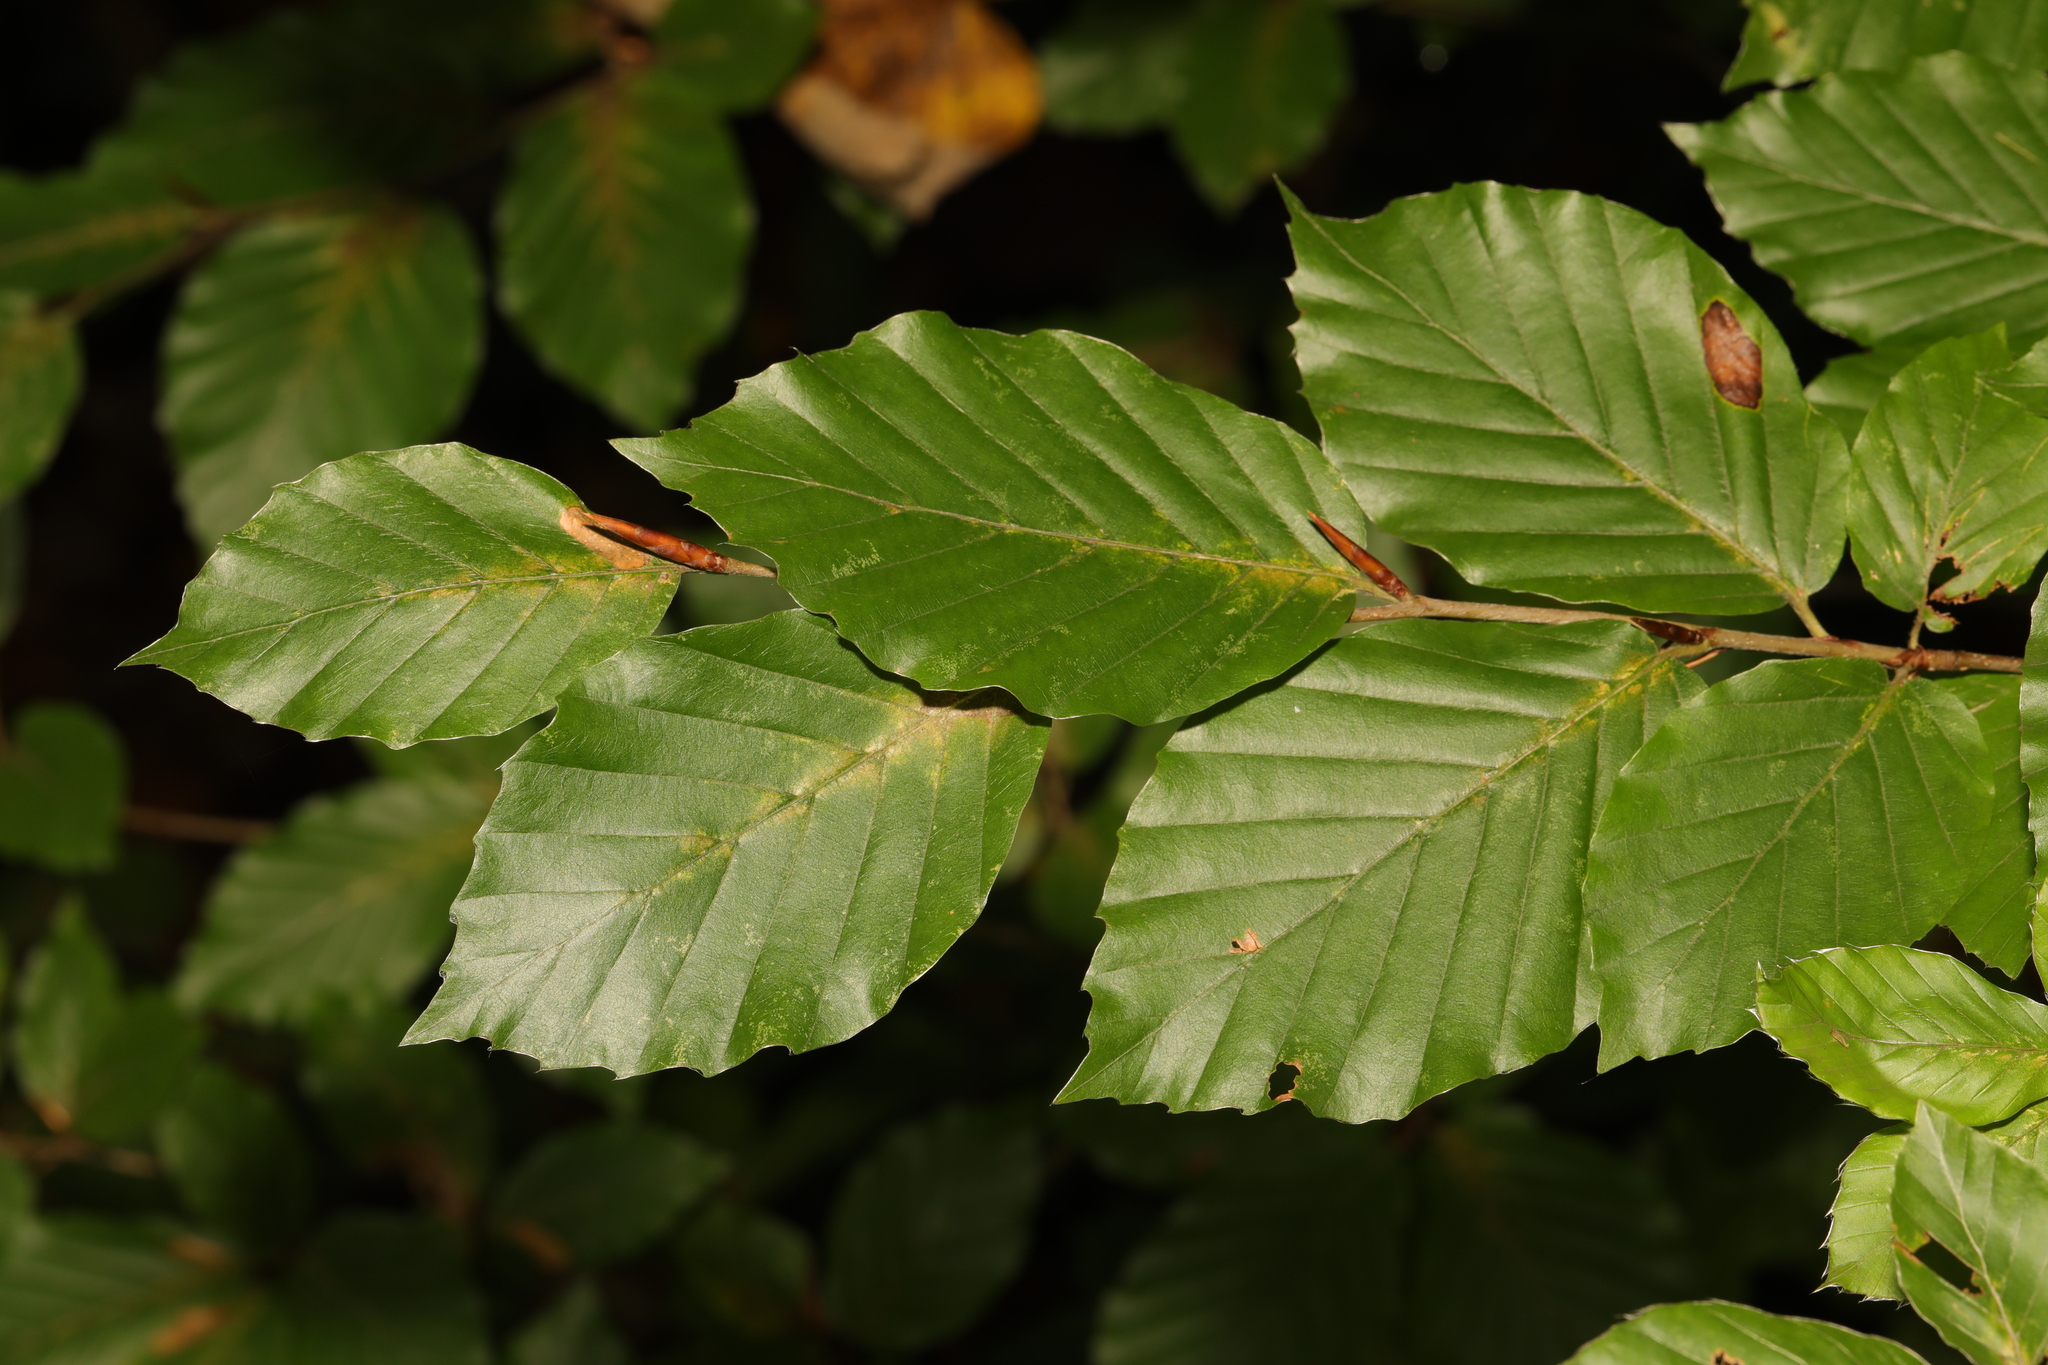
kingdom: Plantae
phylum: Tracheophyta
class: Magnoliopsida
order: Fagales
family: Fagaceae
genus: Fagus
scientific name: Fagus sylvatica
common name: Beech
